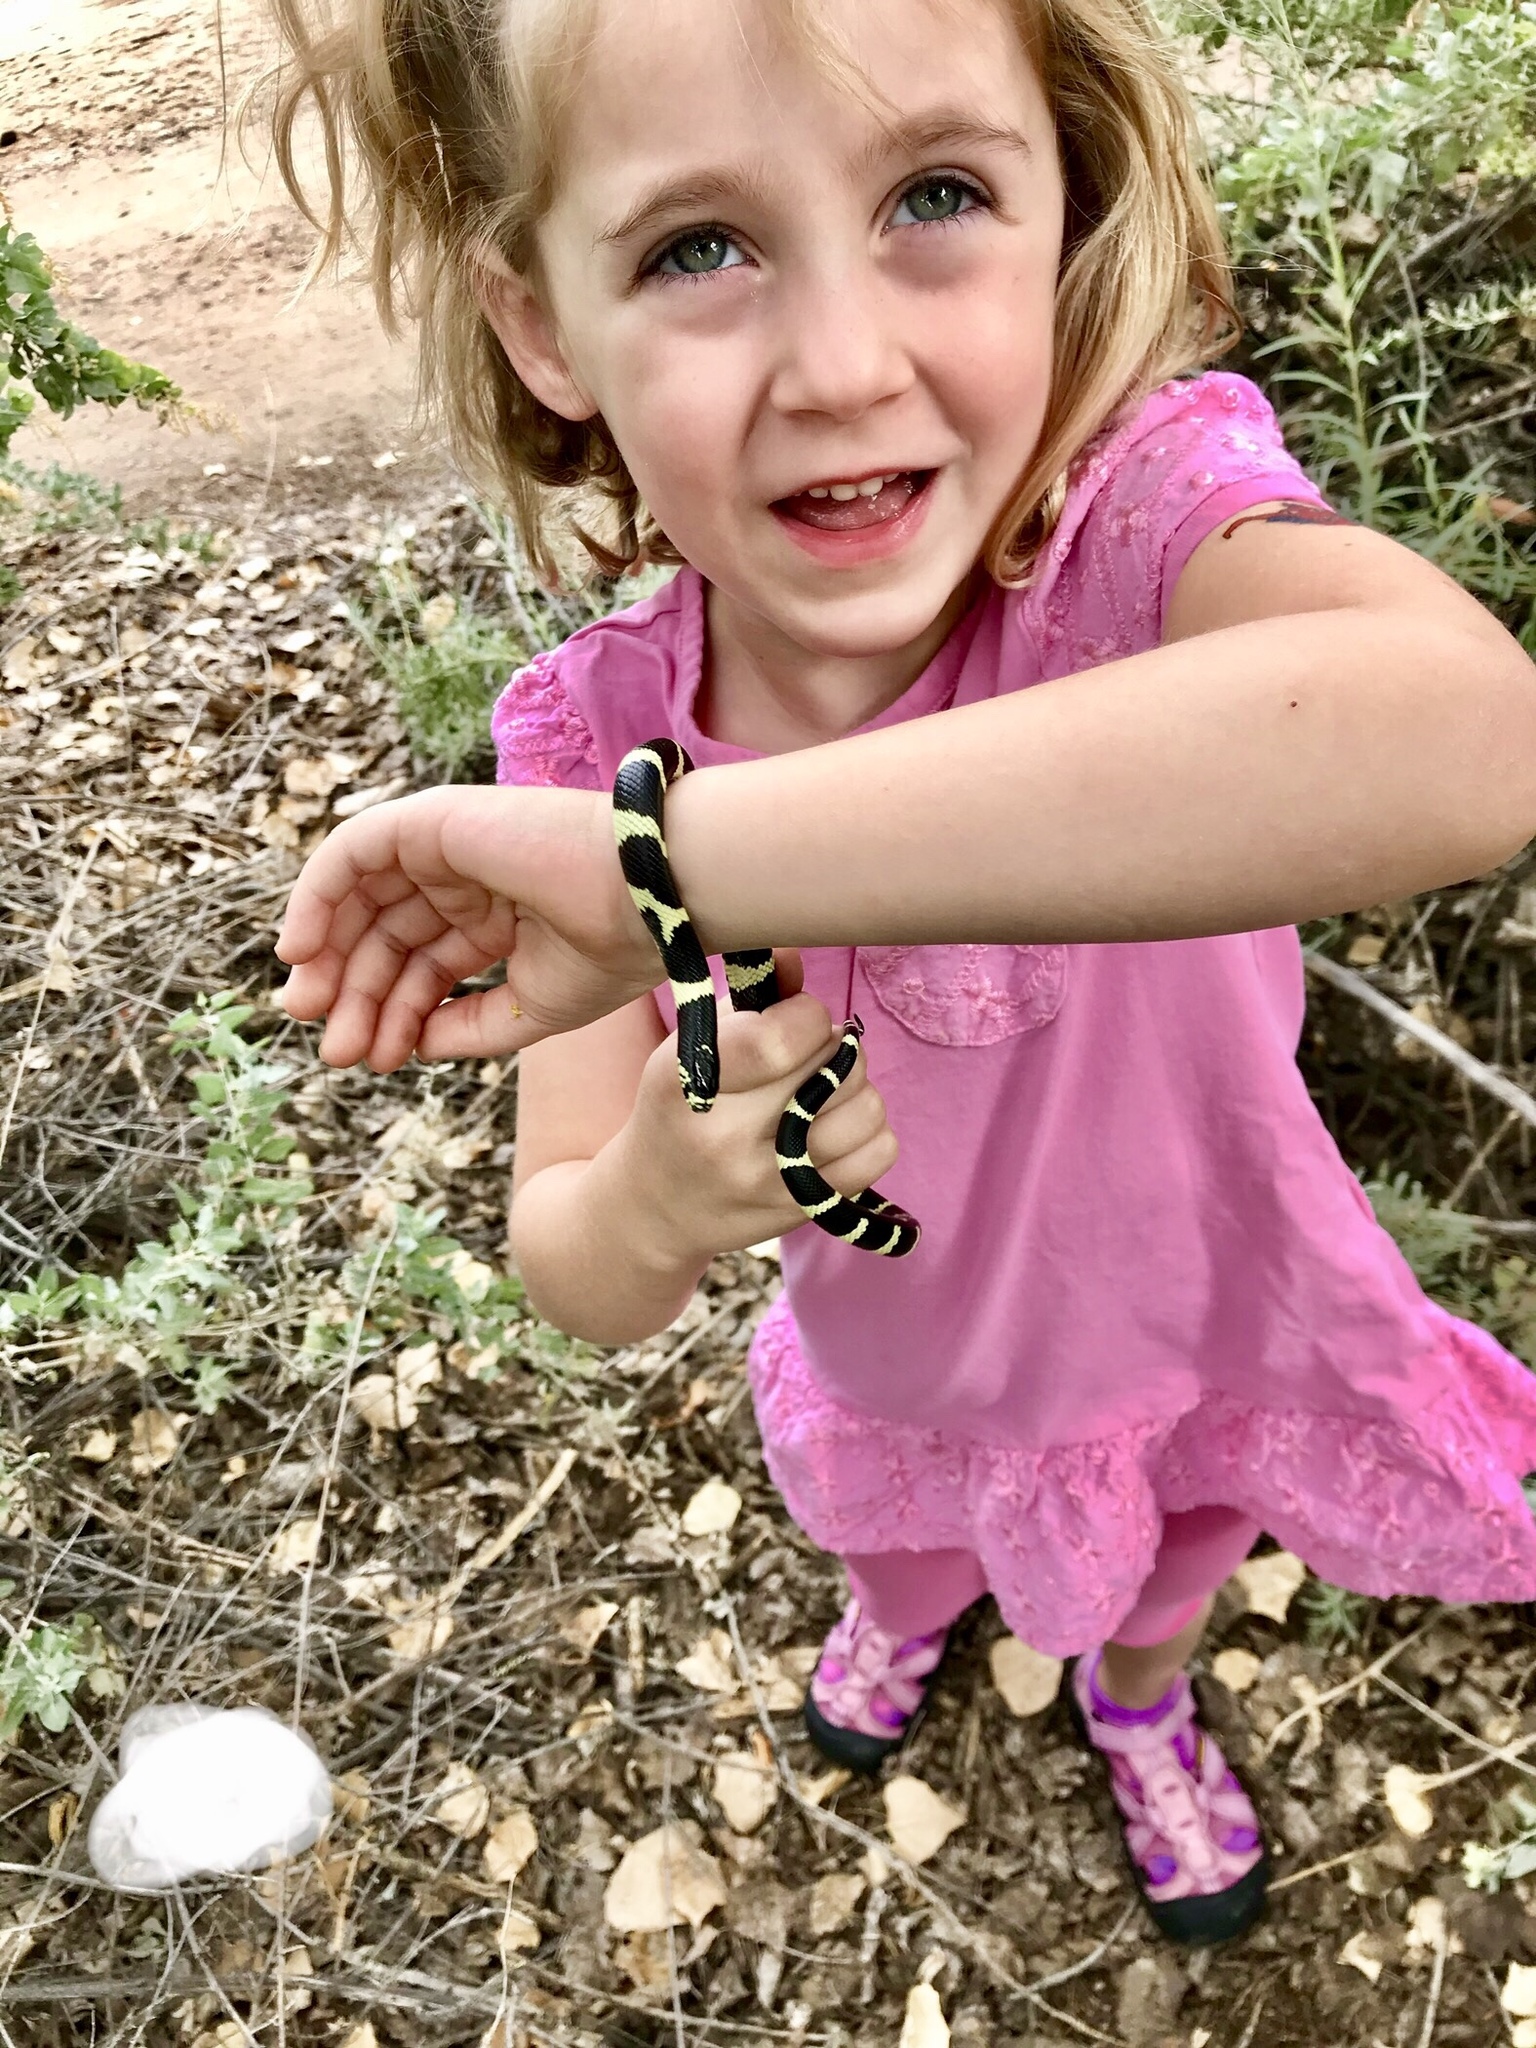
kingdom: Animalia
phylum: Chordata
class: Squamata
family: Colubridae
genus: Lampropeltis
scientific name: Lampropeltis californiae
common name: California kingsnake
